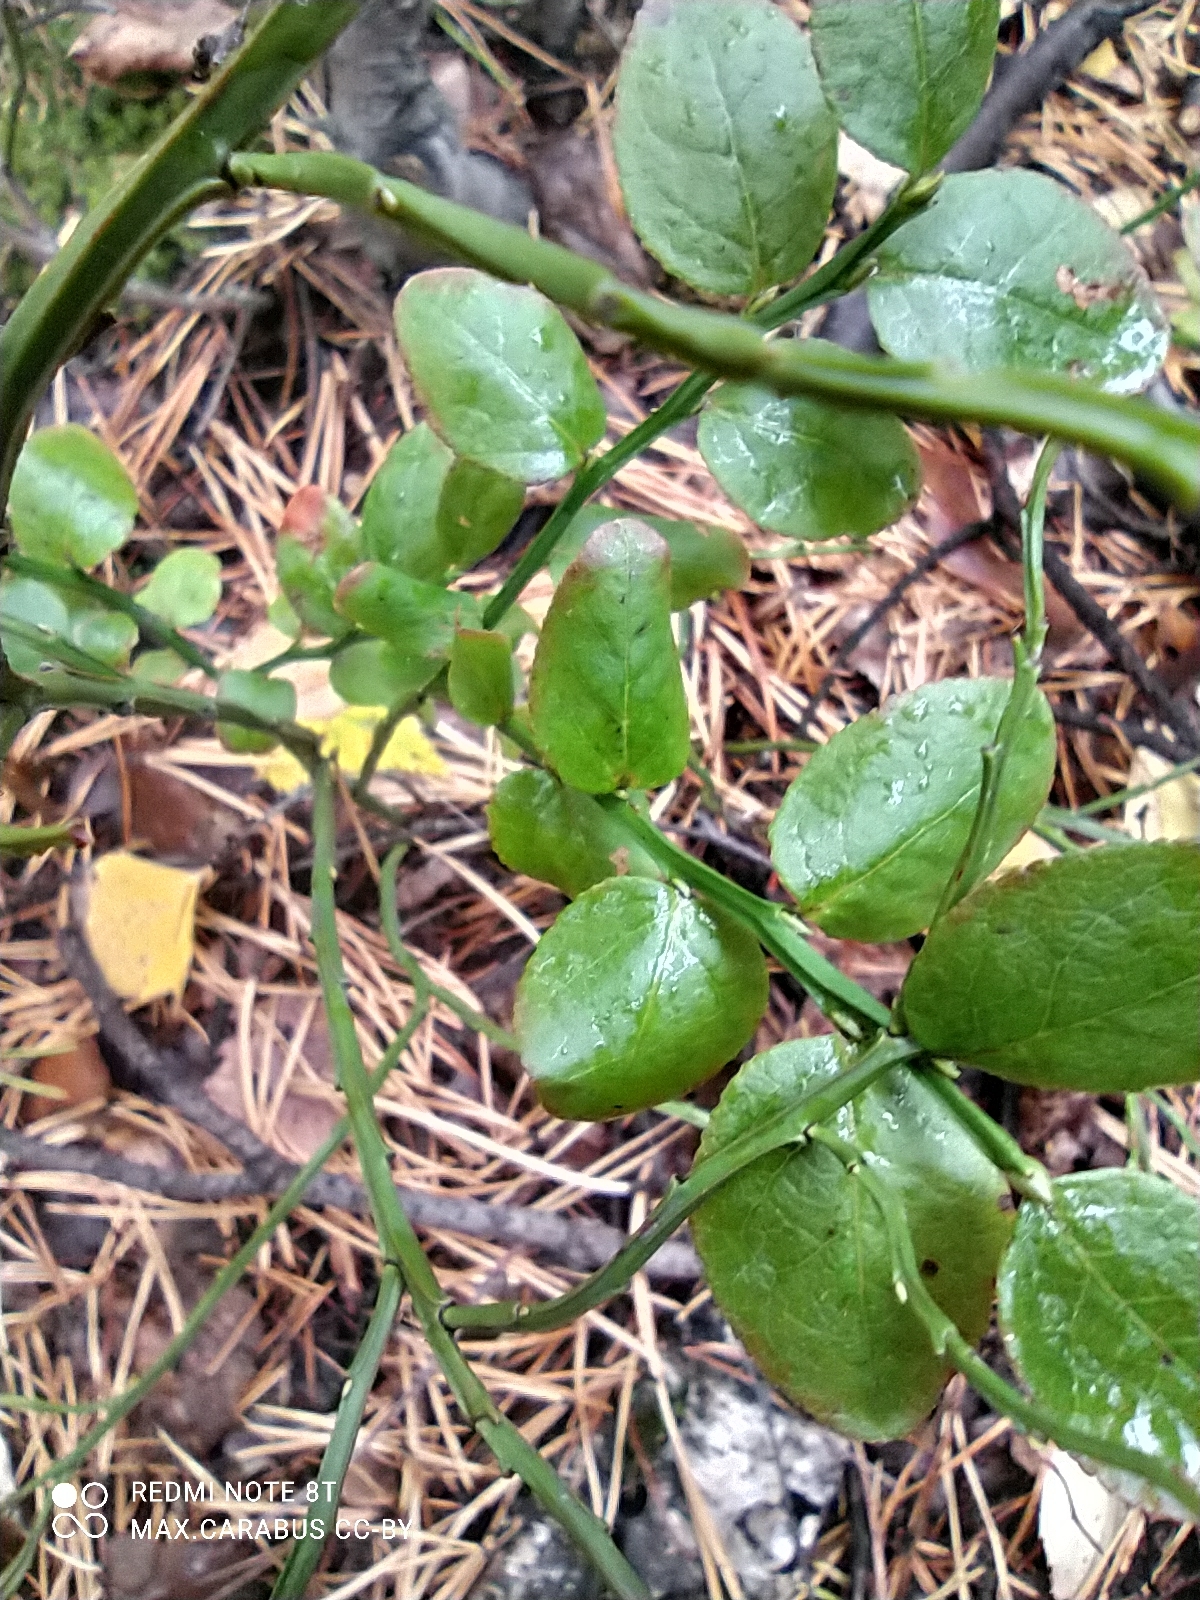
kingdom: Plantae
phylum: Tracheophyta
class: Magnoliopsida
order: Ericales
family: Ericaceae
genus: Vaccinium
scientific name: Vaccinium myrtillus
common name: Bilberry
